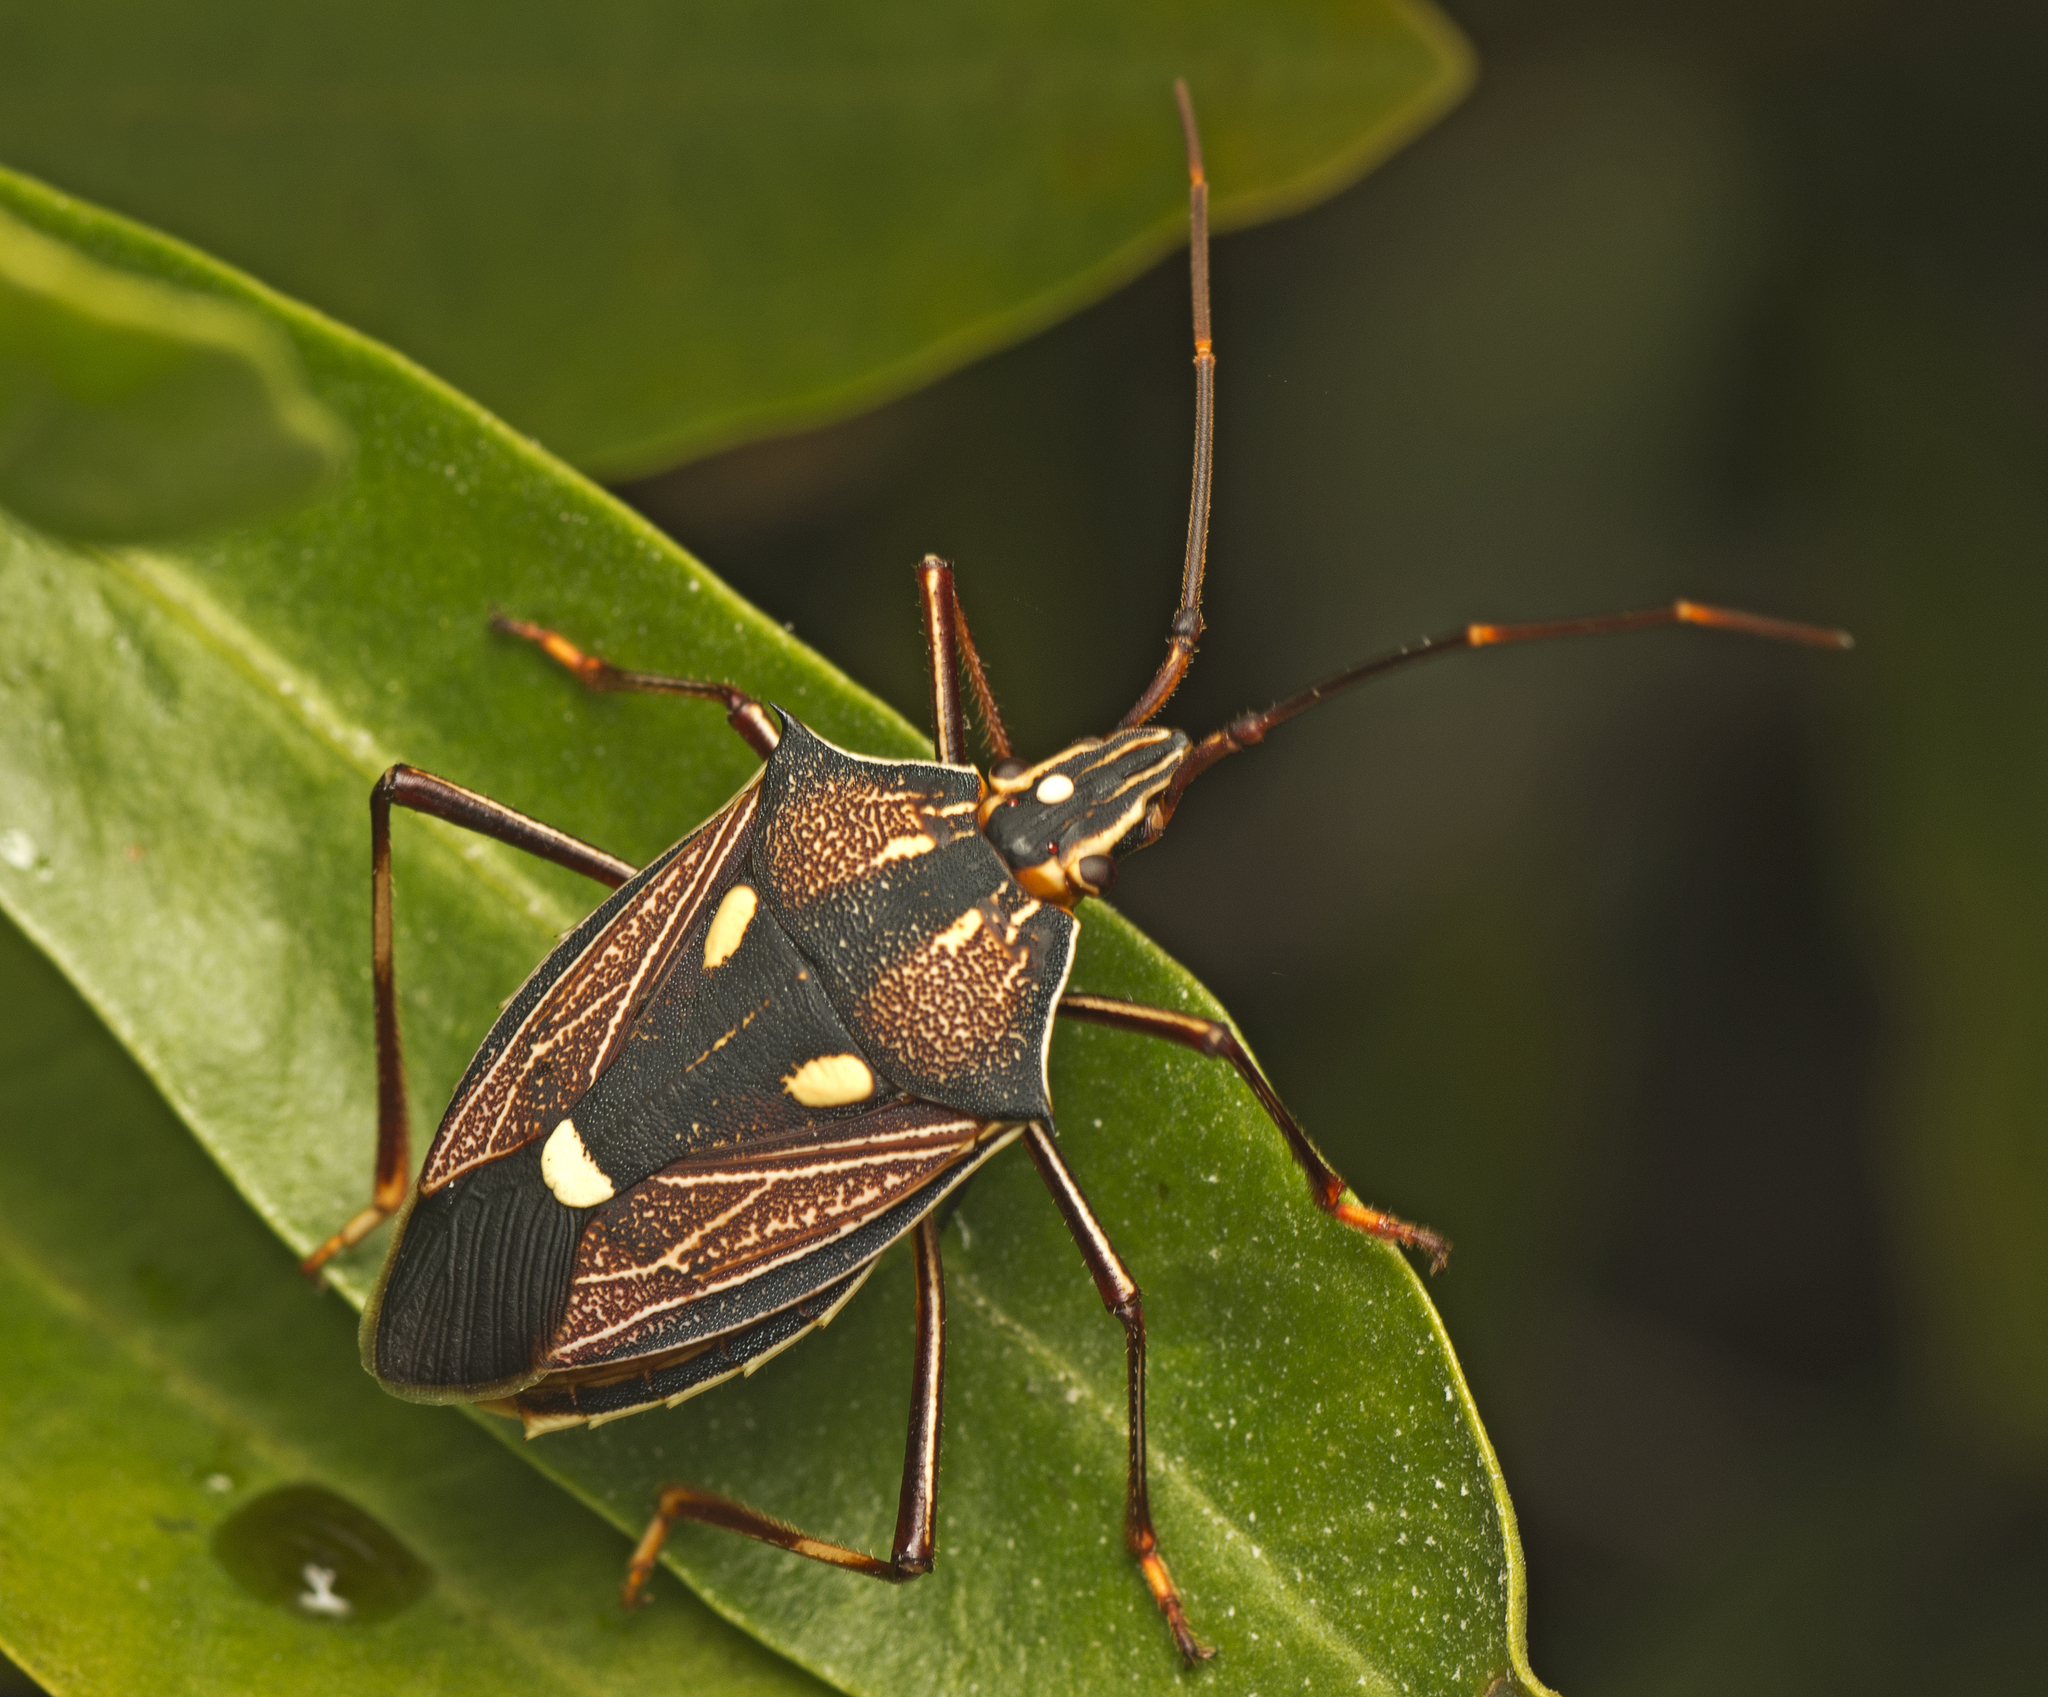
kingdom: Animalia
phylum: Arthropoda
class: Insecta
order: Hemiptera
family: Pentatomidae
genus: Poecilometis
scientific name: Poecilometis armatus
